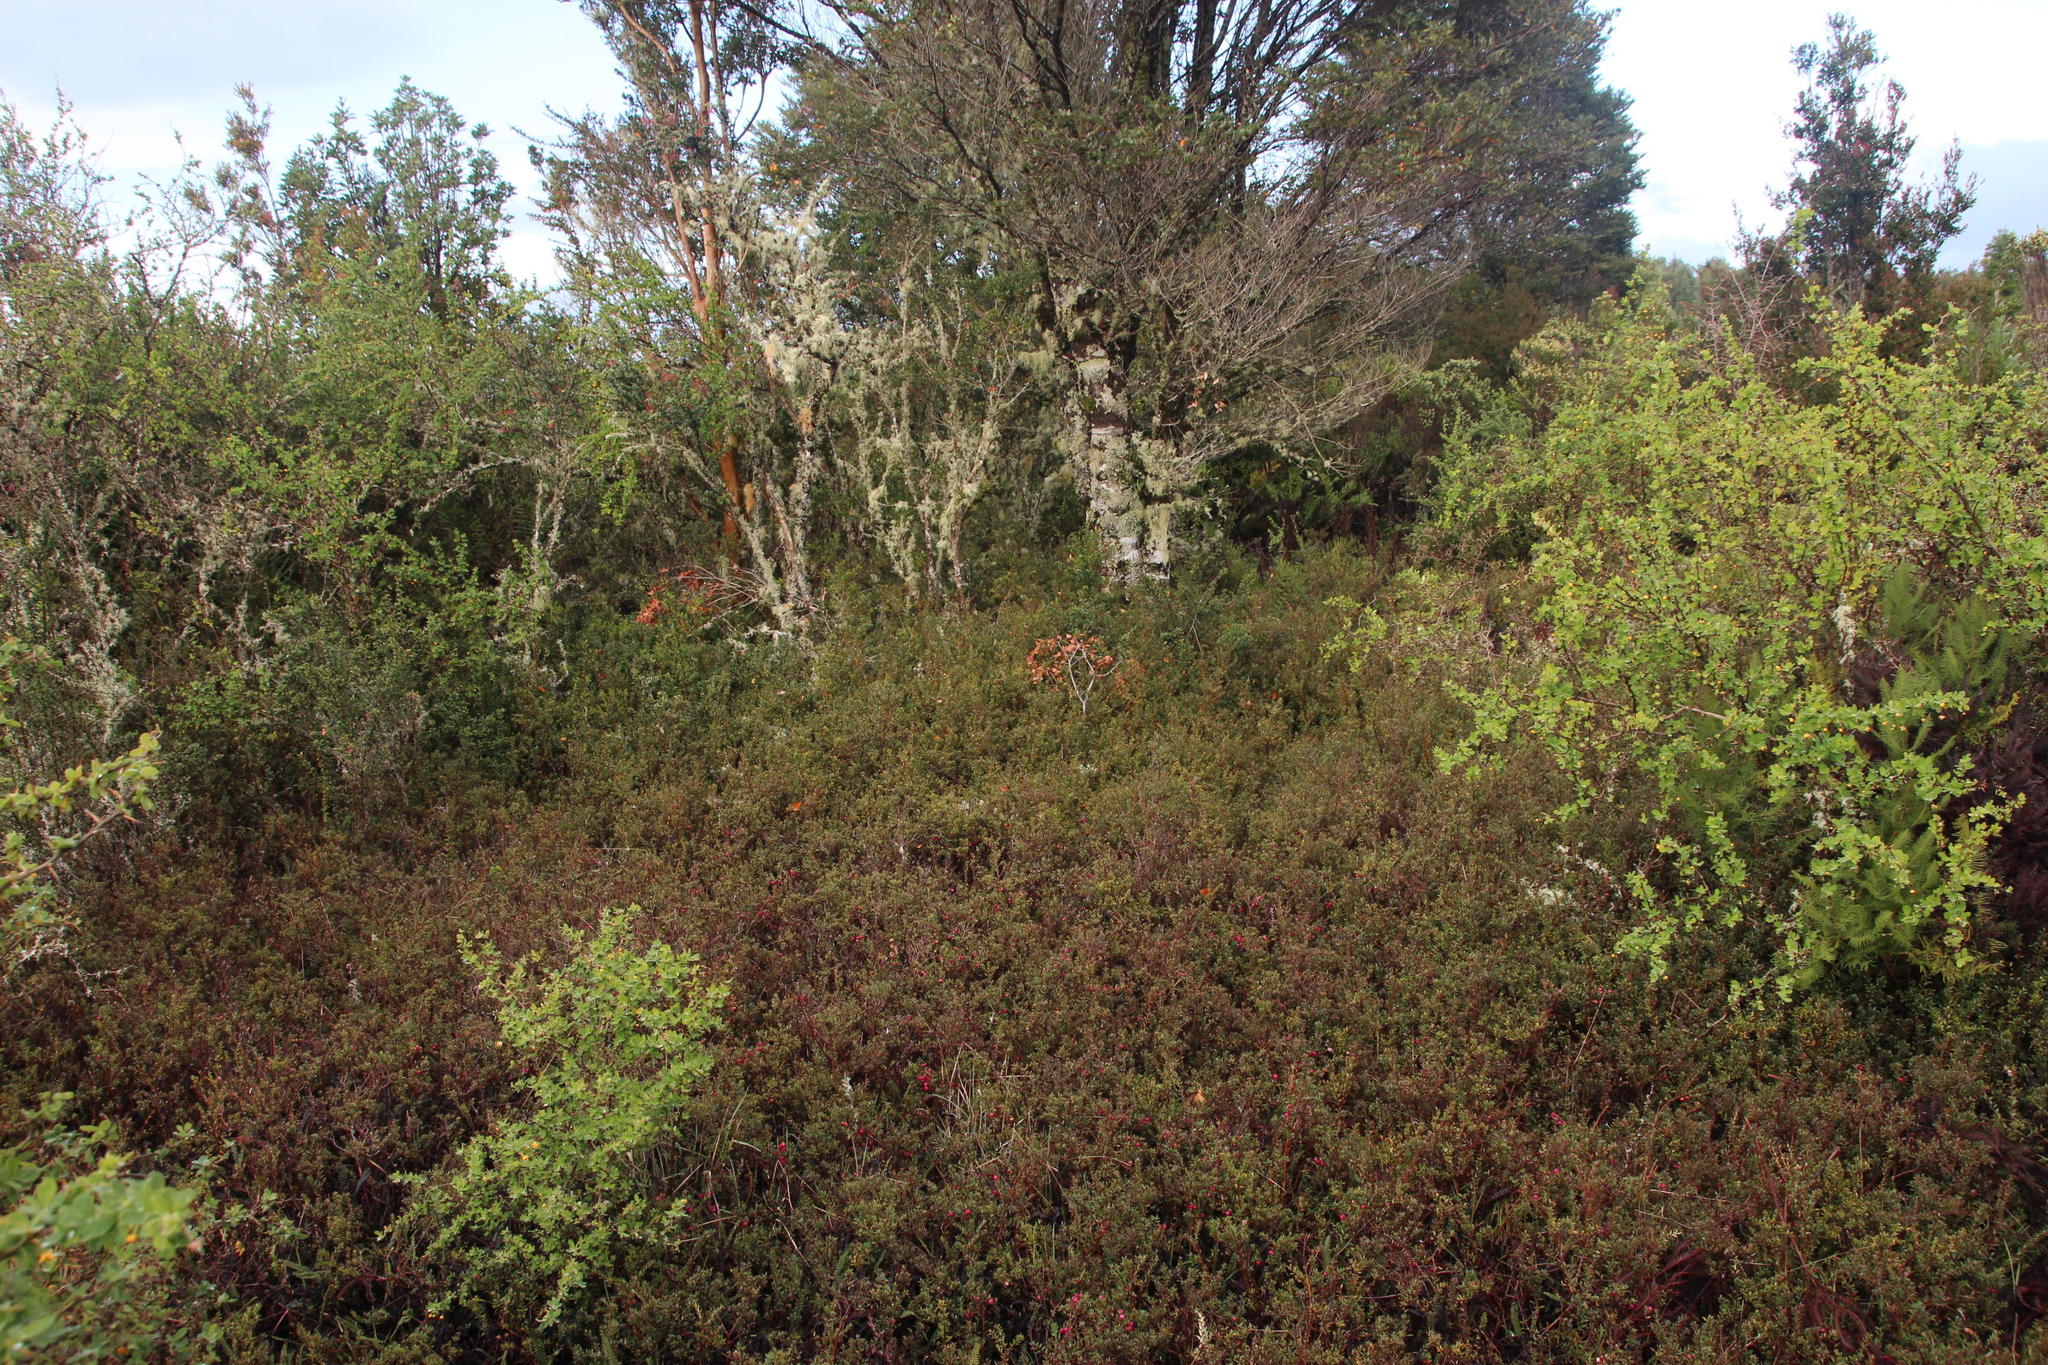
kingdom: Plantae
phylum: Tracheophyta
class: Magnoliopsida
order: Ericales
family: Ericaceae
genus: Gaultheria
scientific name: Gaultheria mucronata
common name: Prickly heath
